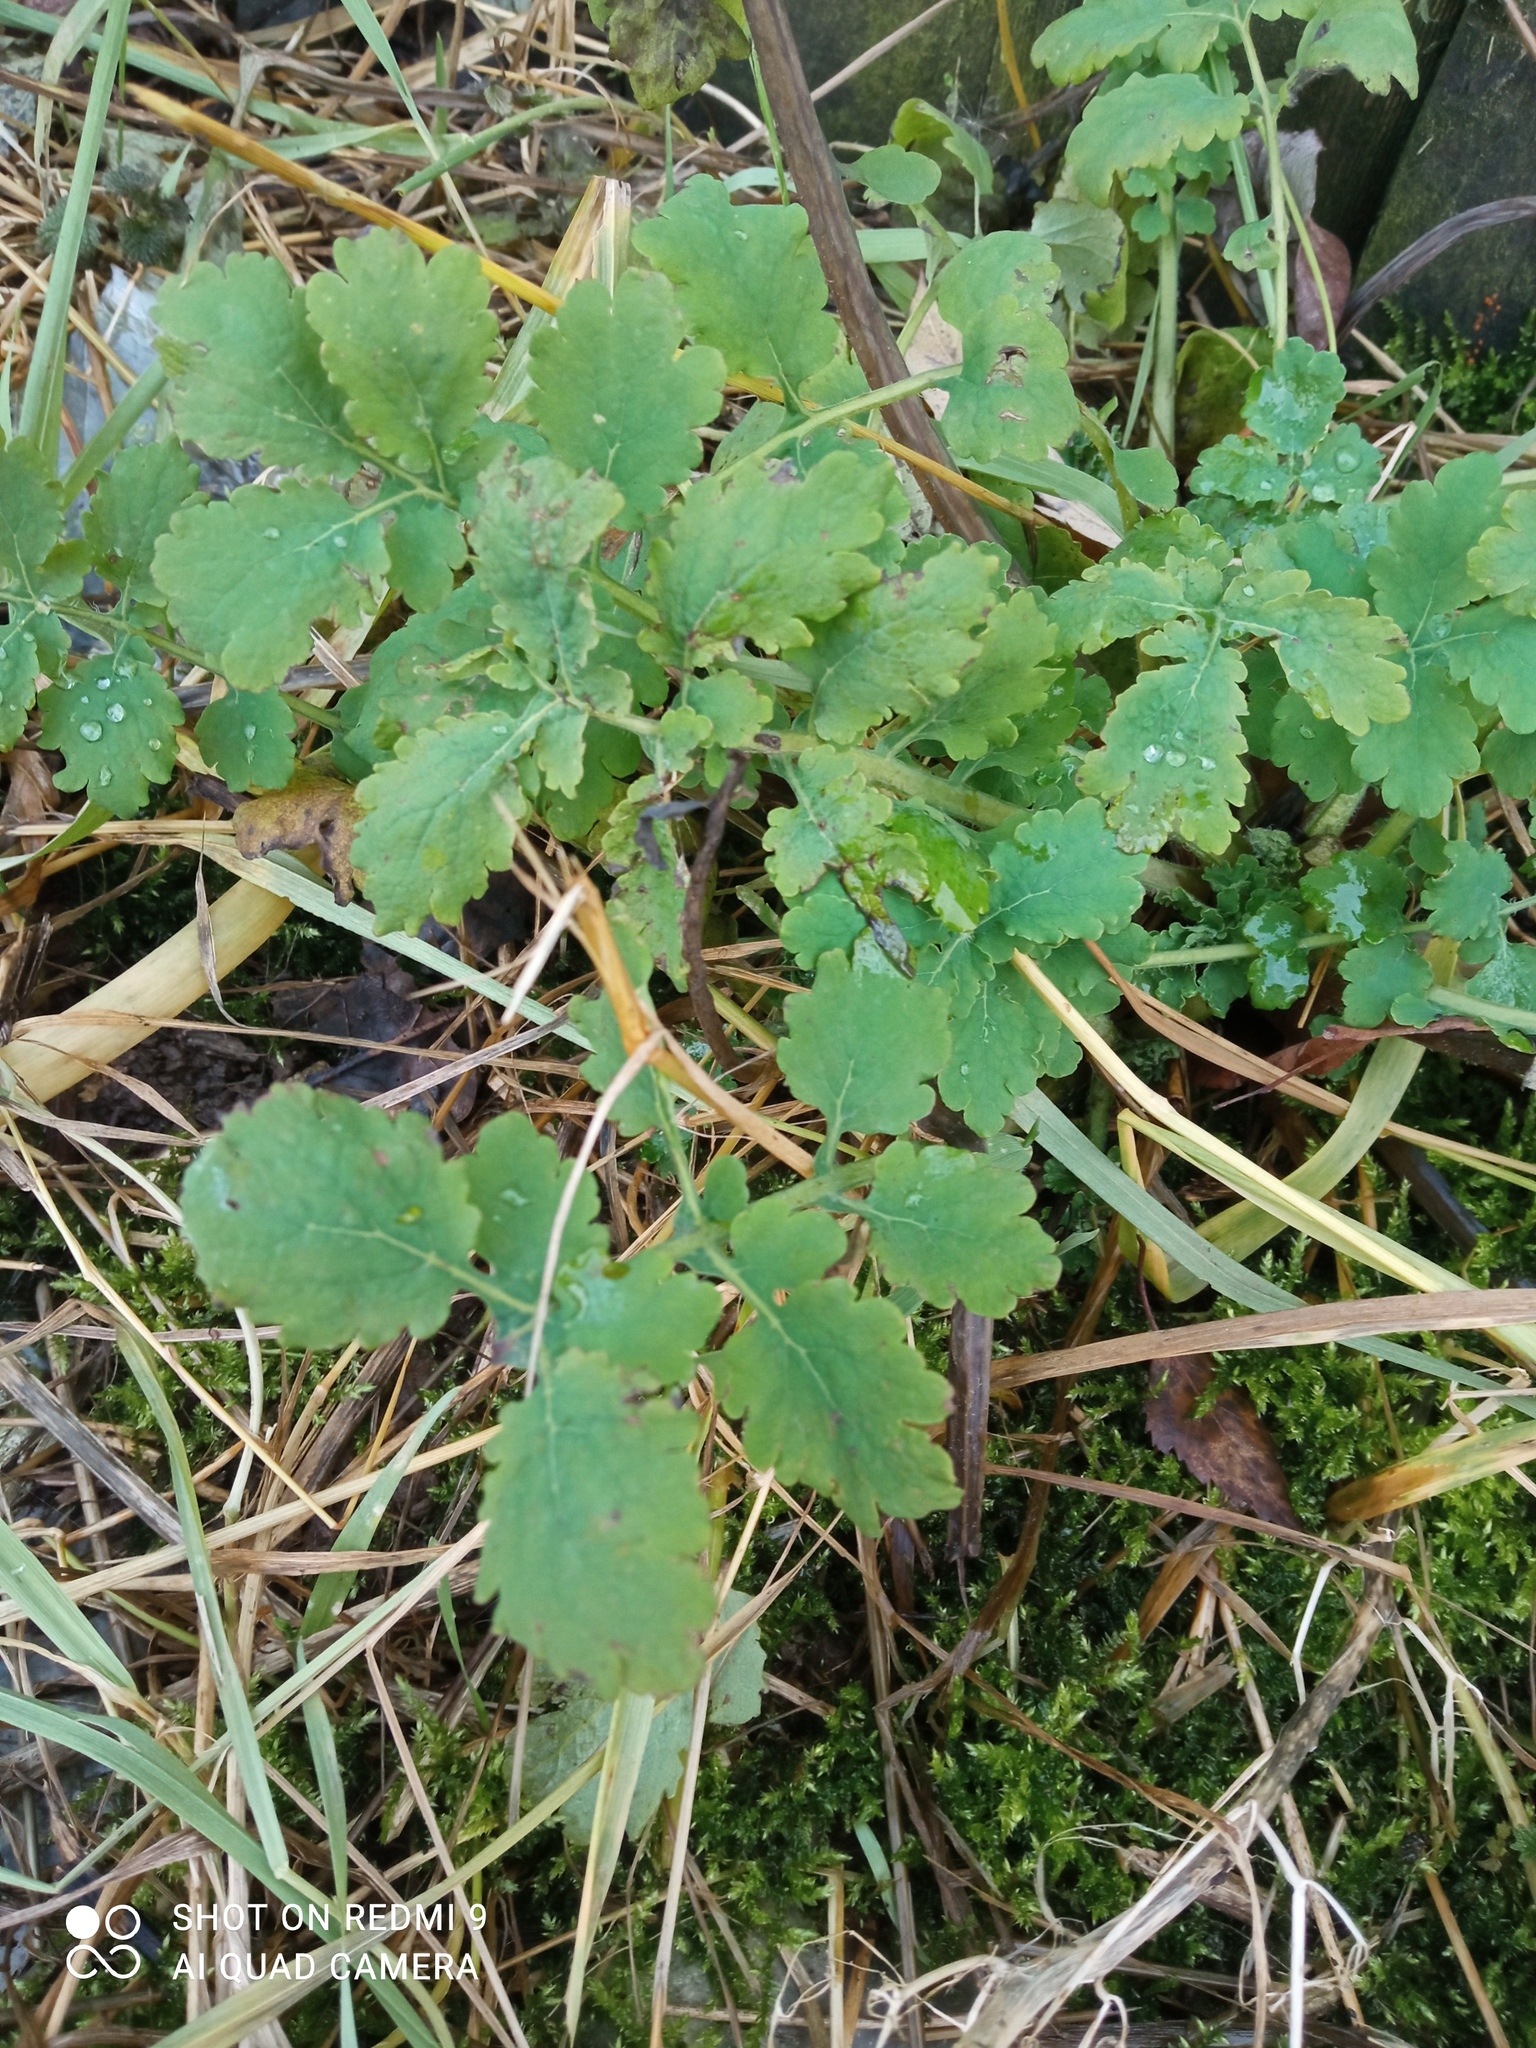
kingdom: Plantae
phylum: Tracheophyta
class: Magnoliopsida
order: Ranunculales
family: Papaveraceae
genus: Chelidonium
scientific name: Chelidonium majus
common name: Greater celandine
